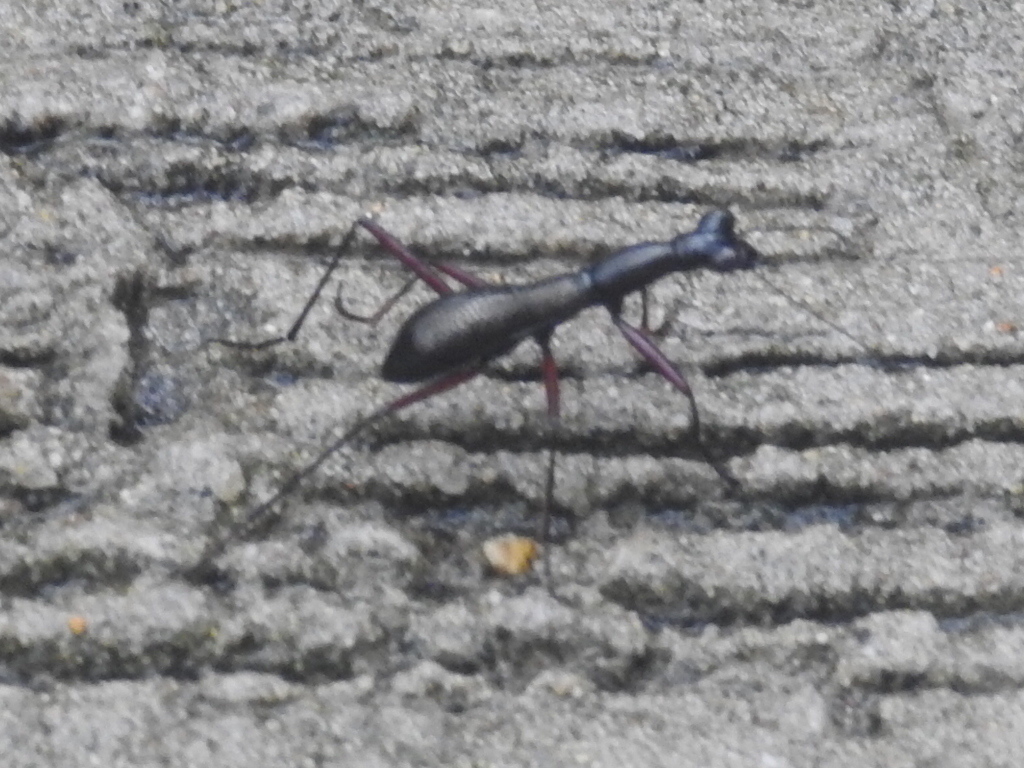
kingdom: Animalia
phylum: Arthropoda
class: Insecta
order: Coleoptera
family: Carabidae
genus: Tricondyla
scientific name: Tricondyla pulchripes
